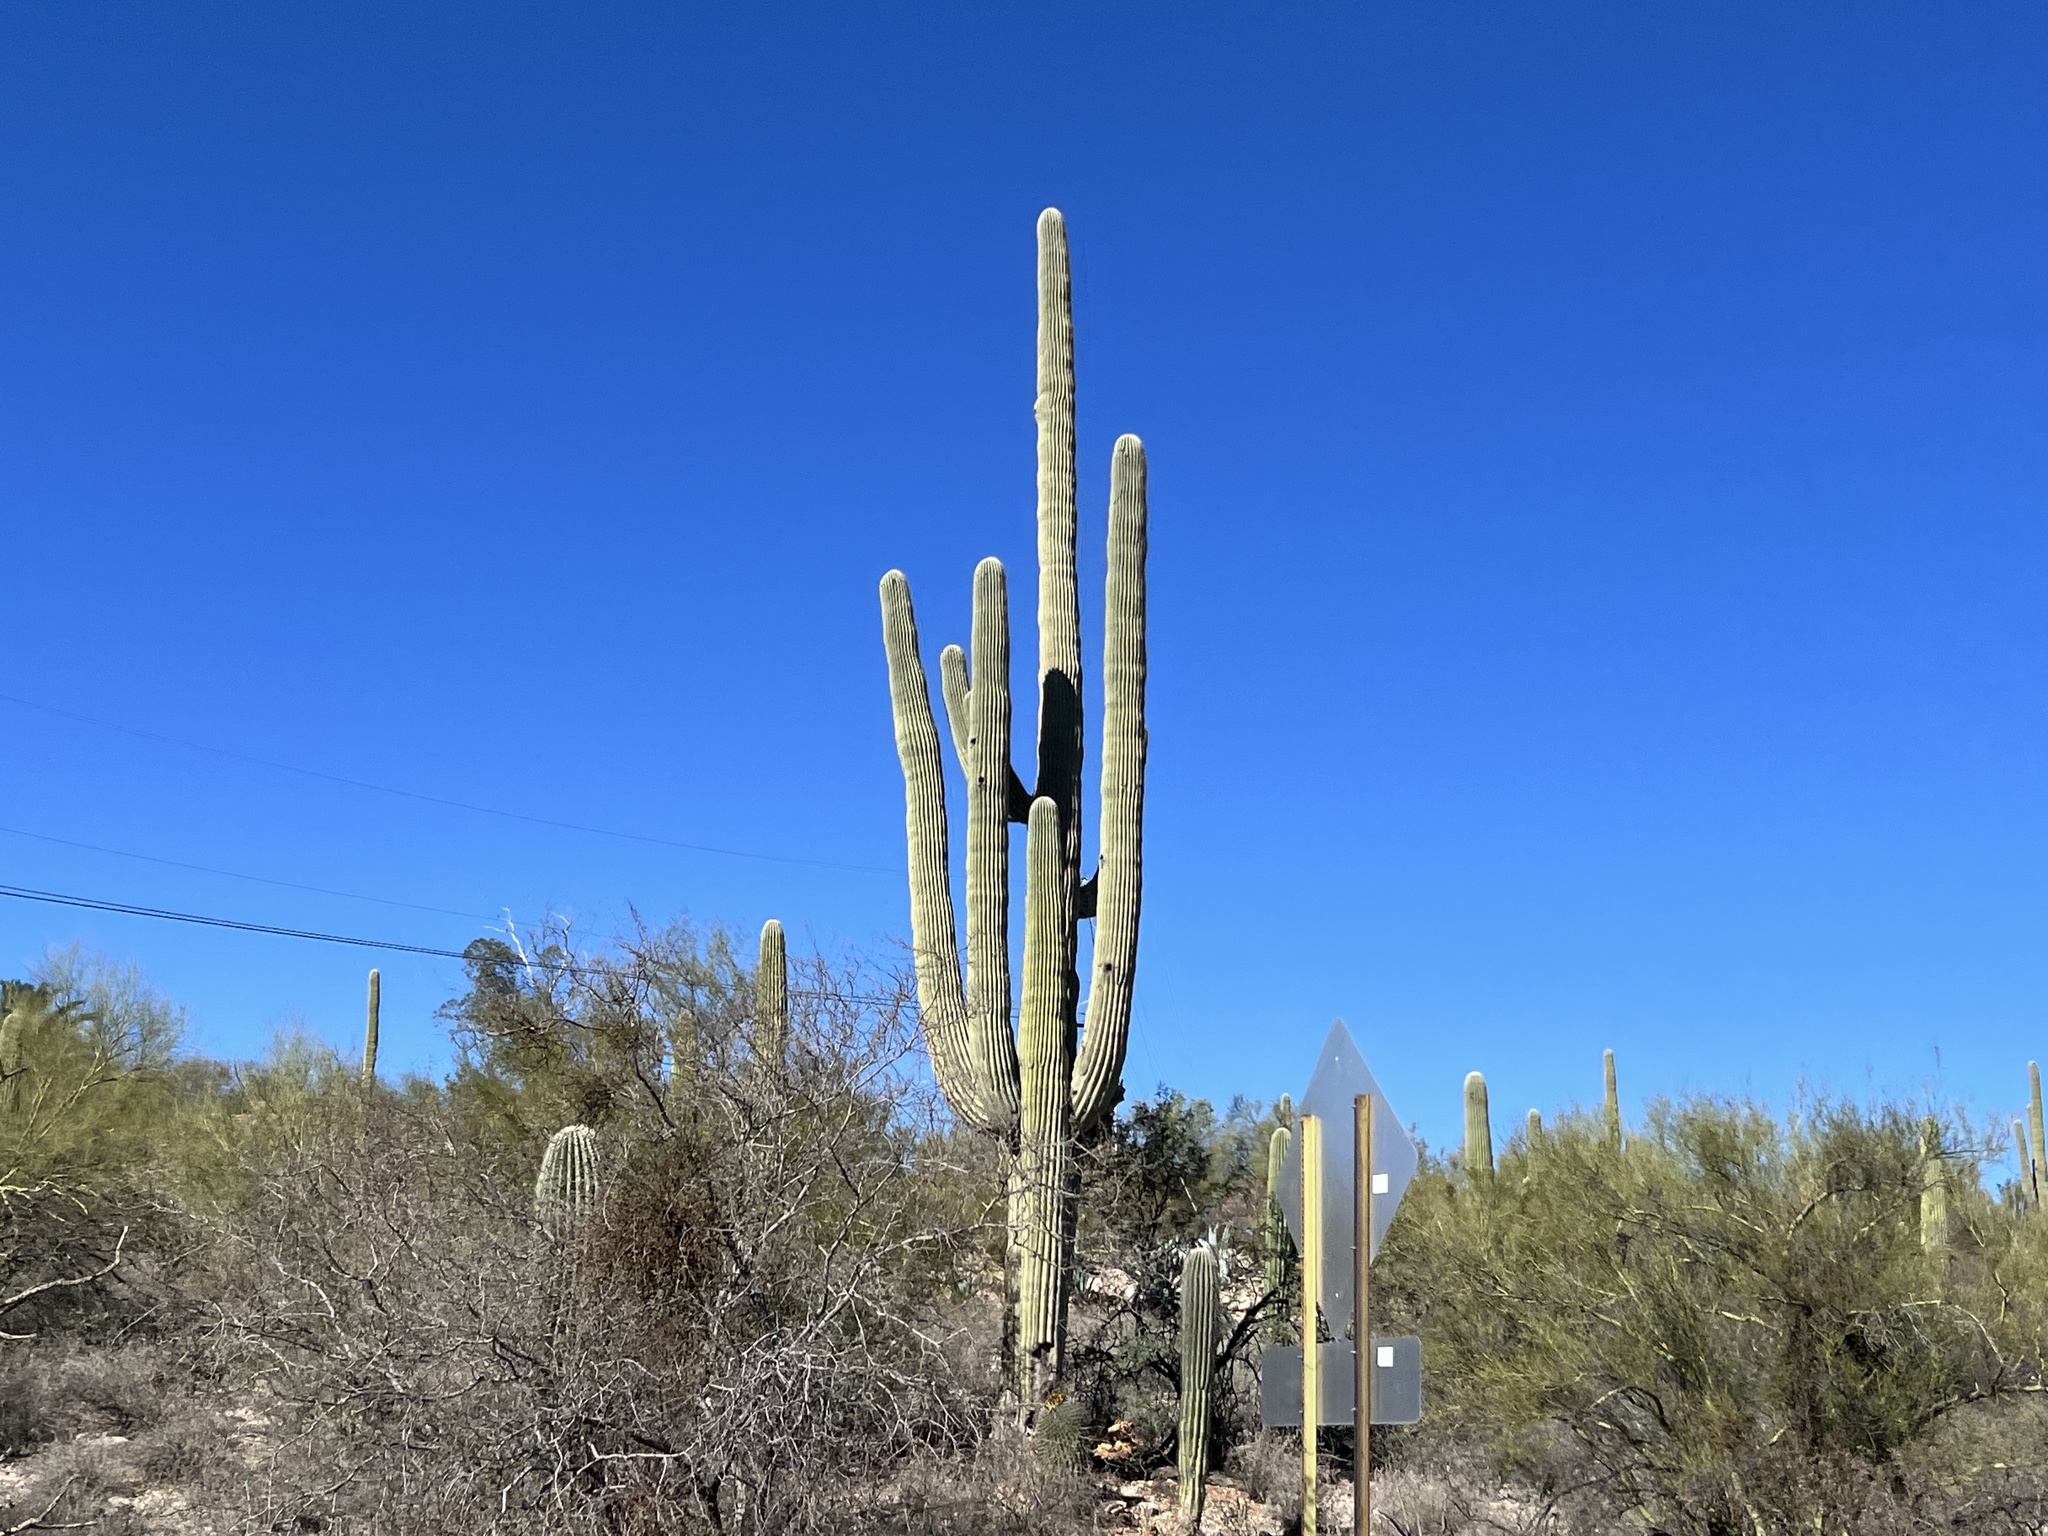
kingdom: Plantae
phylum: Tracheophyta
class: Magnoliopsida
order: Caryophyllales
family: Cactaceae
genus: Carnegiea
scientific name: Carnegiea gigantea
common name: Saguaro
